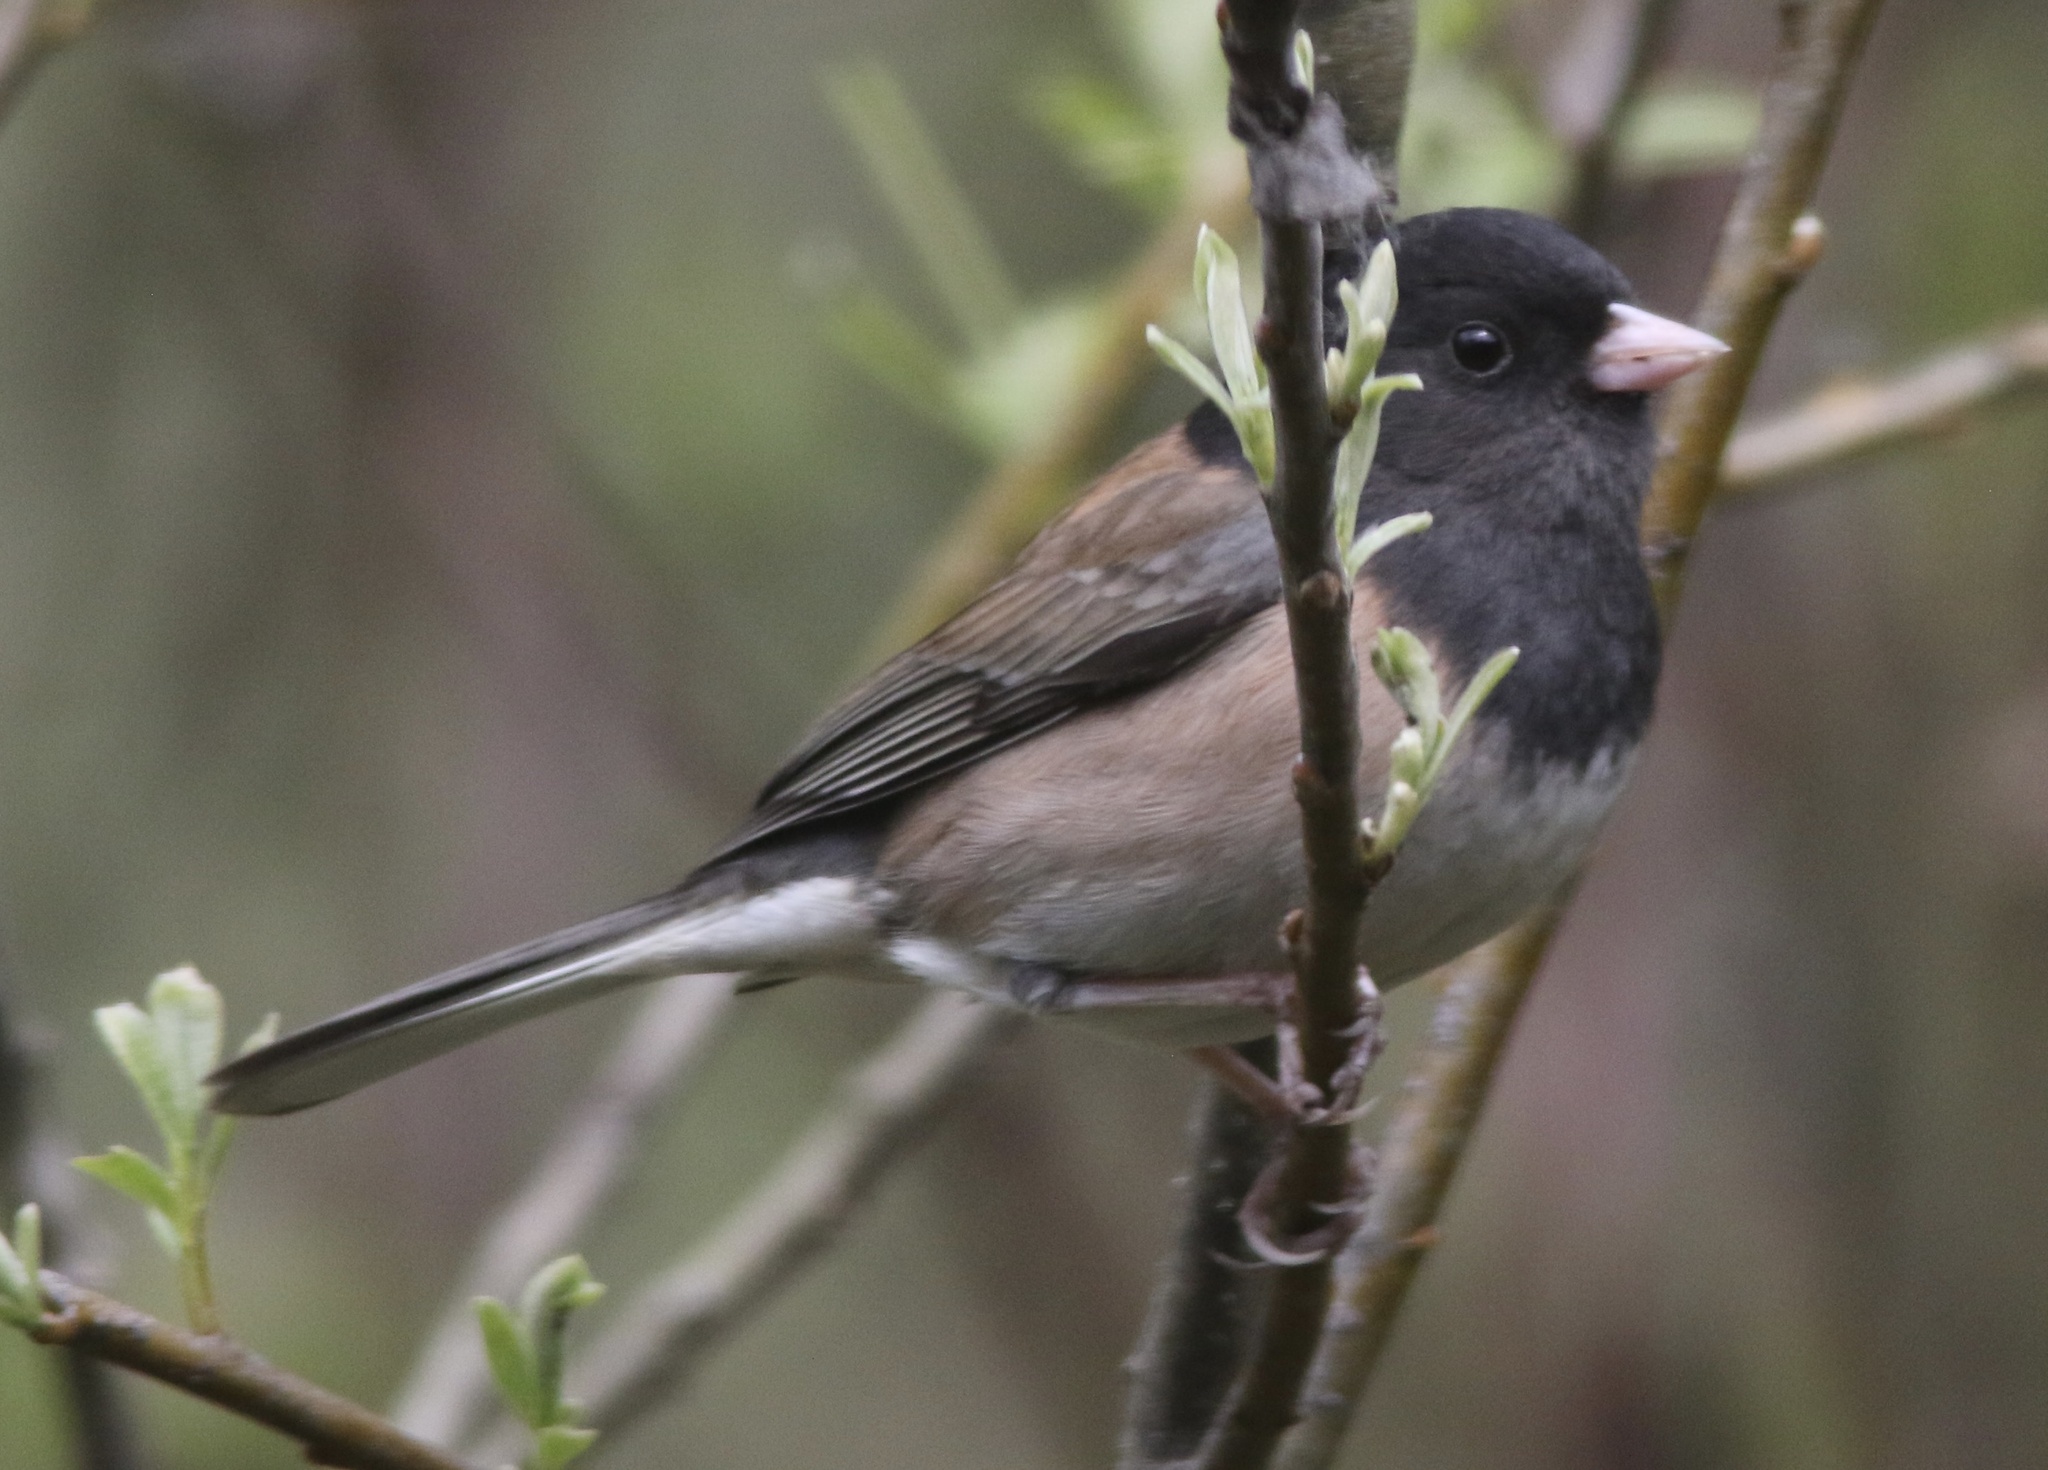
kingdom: Animalia
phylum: Chordata
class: Aves
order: Passeriformes
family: Passerellidae
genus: Junco
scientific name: Junco hyemalis
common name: Dark-eyed junco
